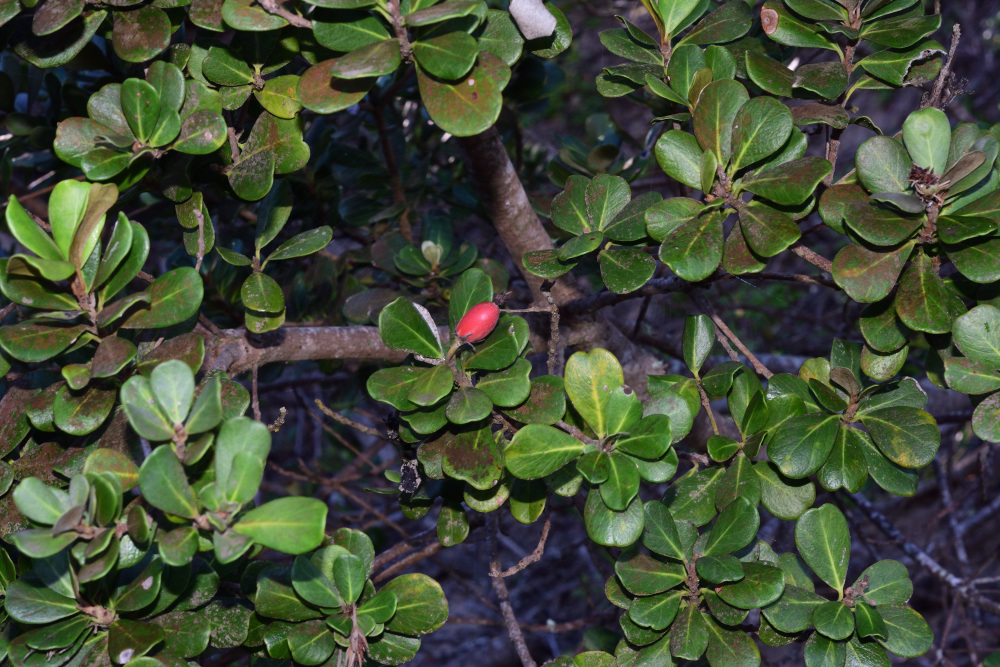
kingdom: Plantae
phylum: Tracheophyta
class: Magnoliopsida
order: Ericales
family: Sapotaceae
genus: Mimusops
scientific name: Mimusops caffra
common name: Coastal red milkwood
